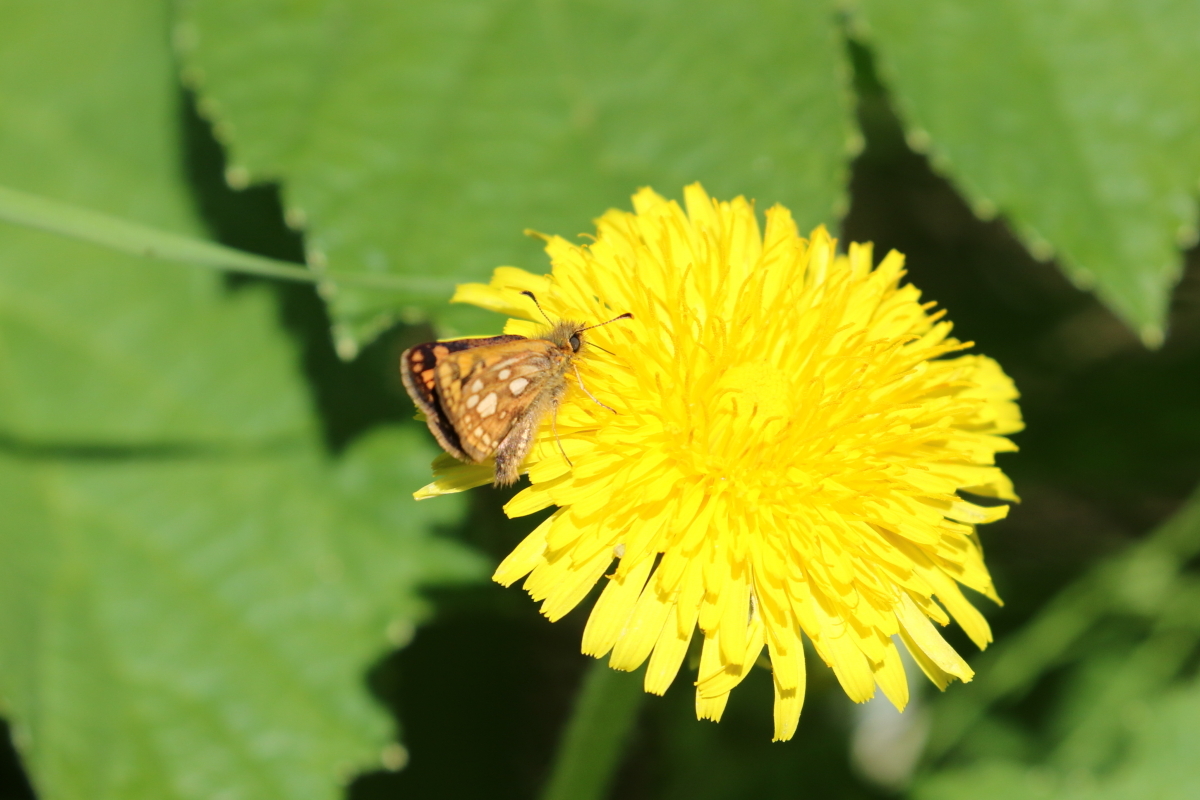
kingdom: Animalia
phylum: Arthropoda
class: Insecta
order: Lepidoptera
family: Hesperiidae
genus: Carterocephalus
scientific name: Carterocephalus skada
